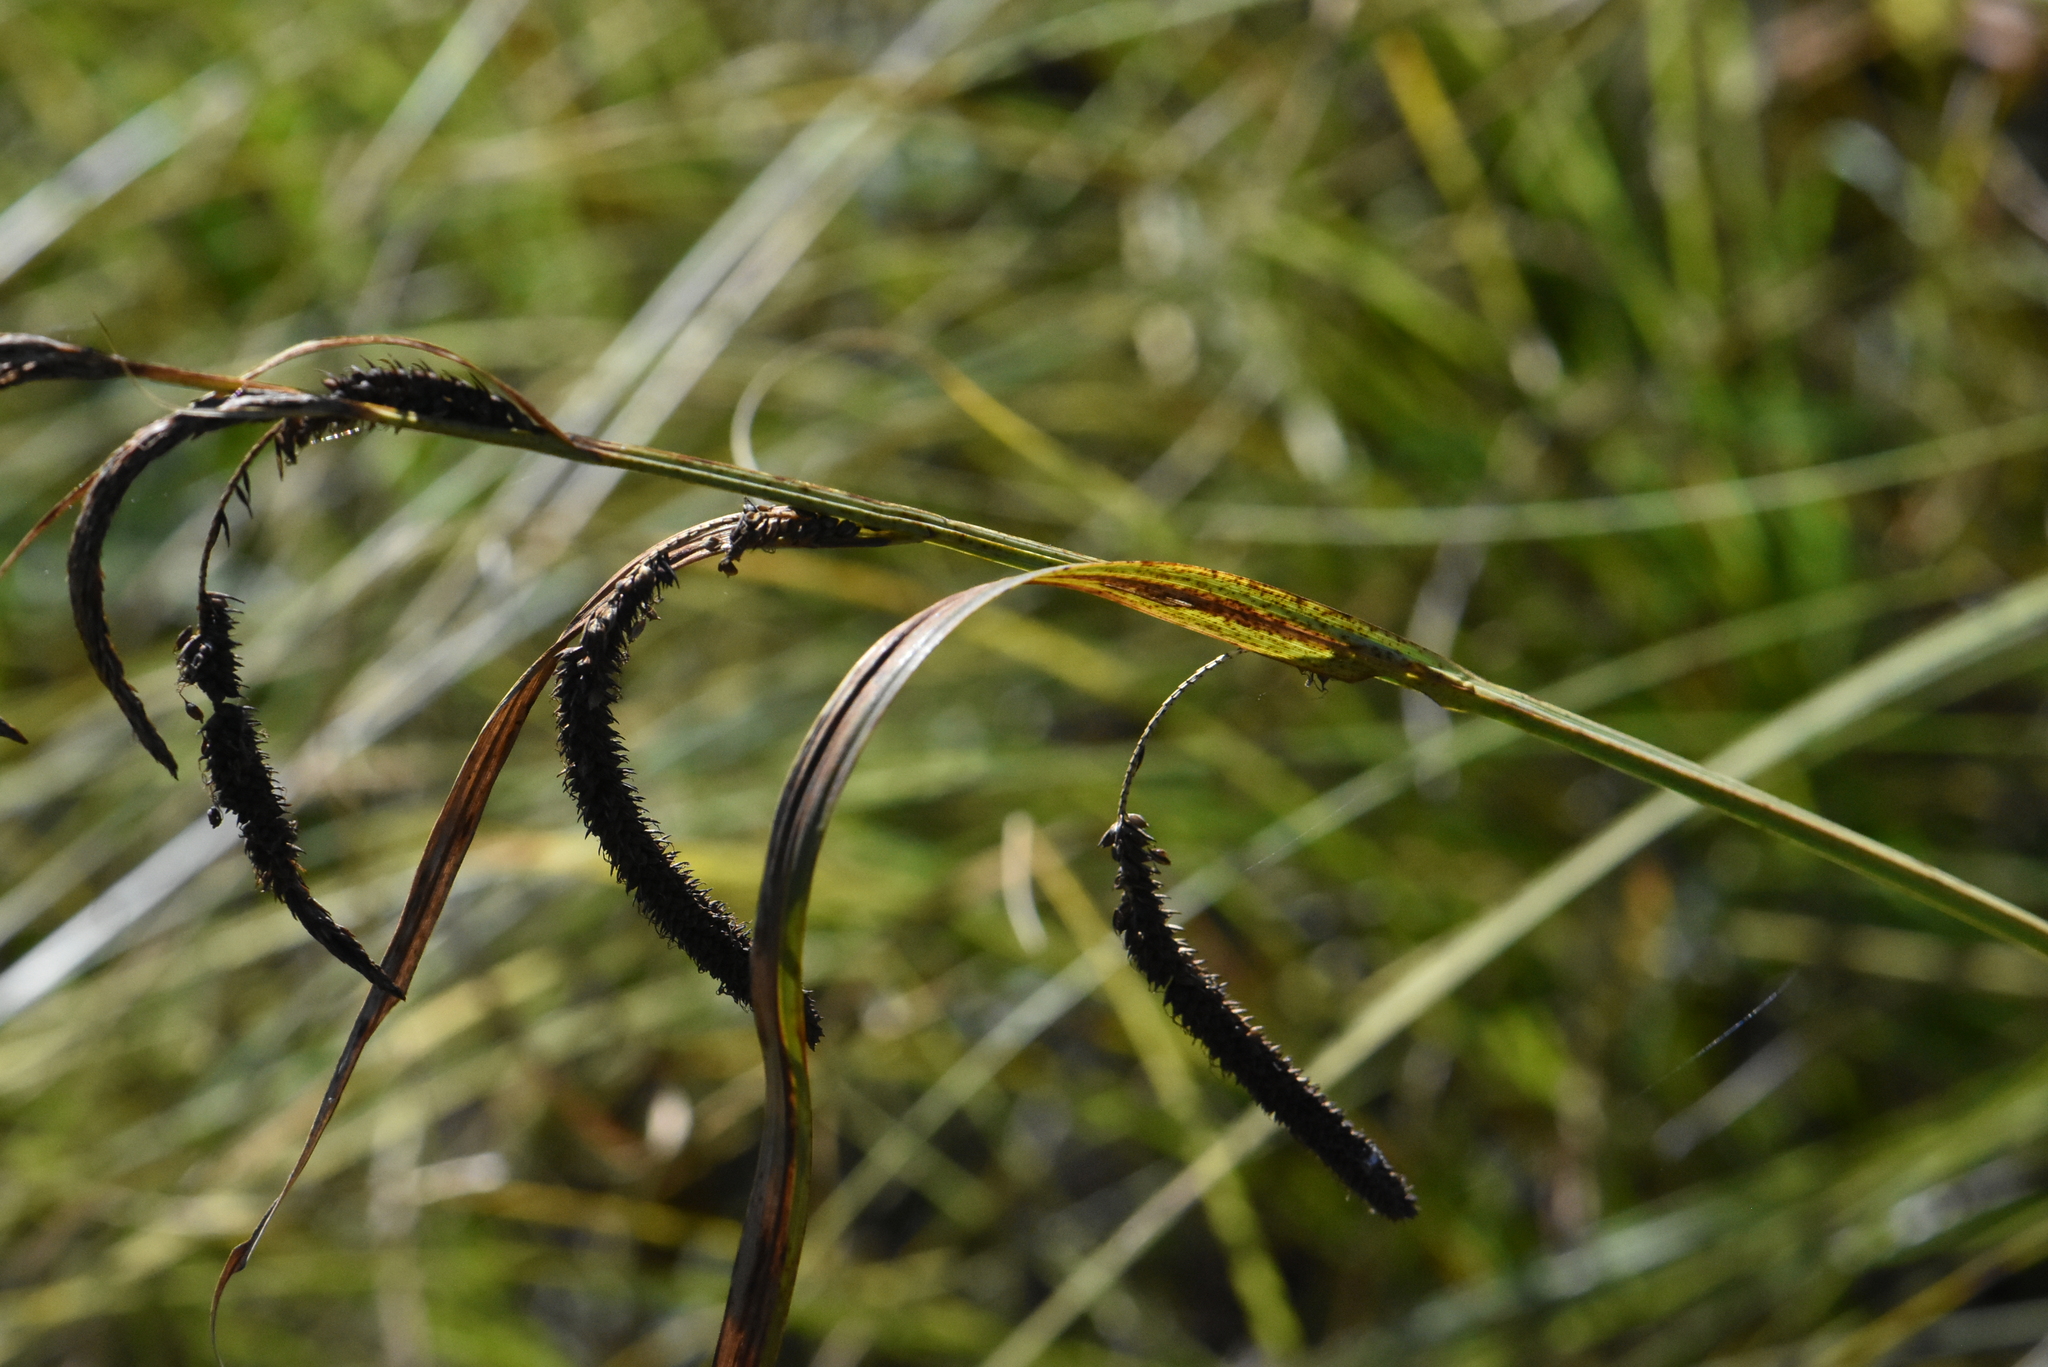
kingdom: Plantae
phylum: Tracheophyta
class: Liliopsida
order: Poales
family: Cyperaceae
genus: Carex
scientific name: Carex acuta
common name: Slender tufted-sedge
